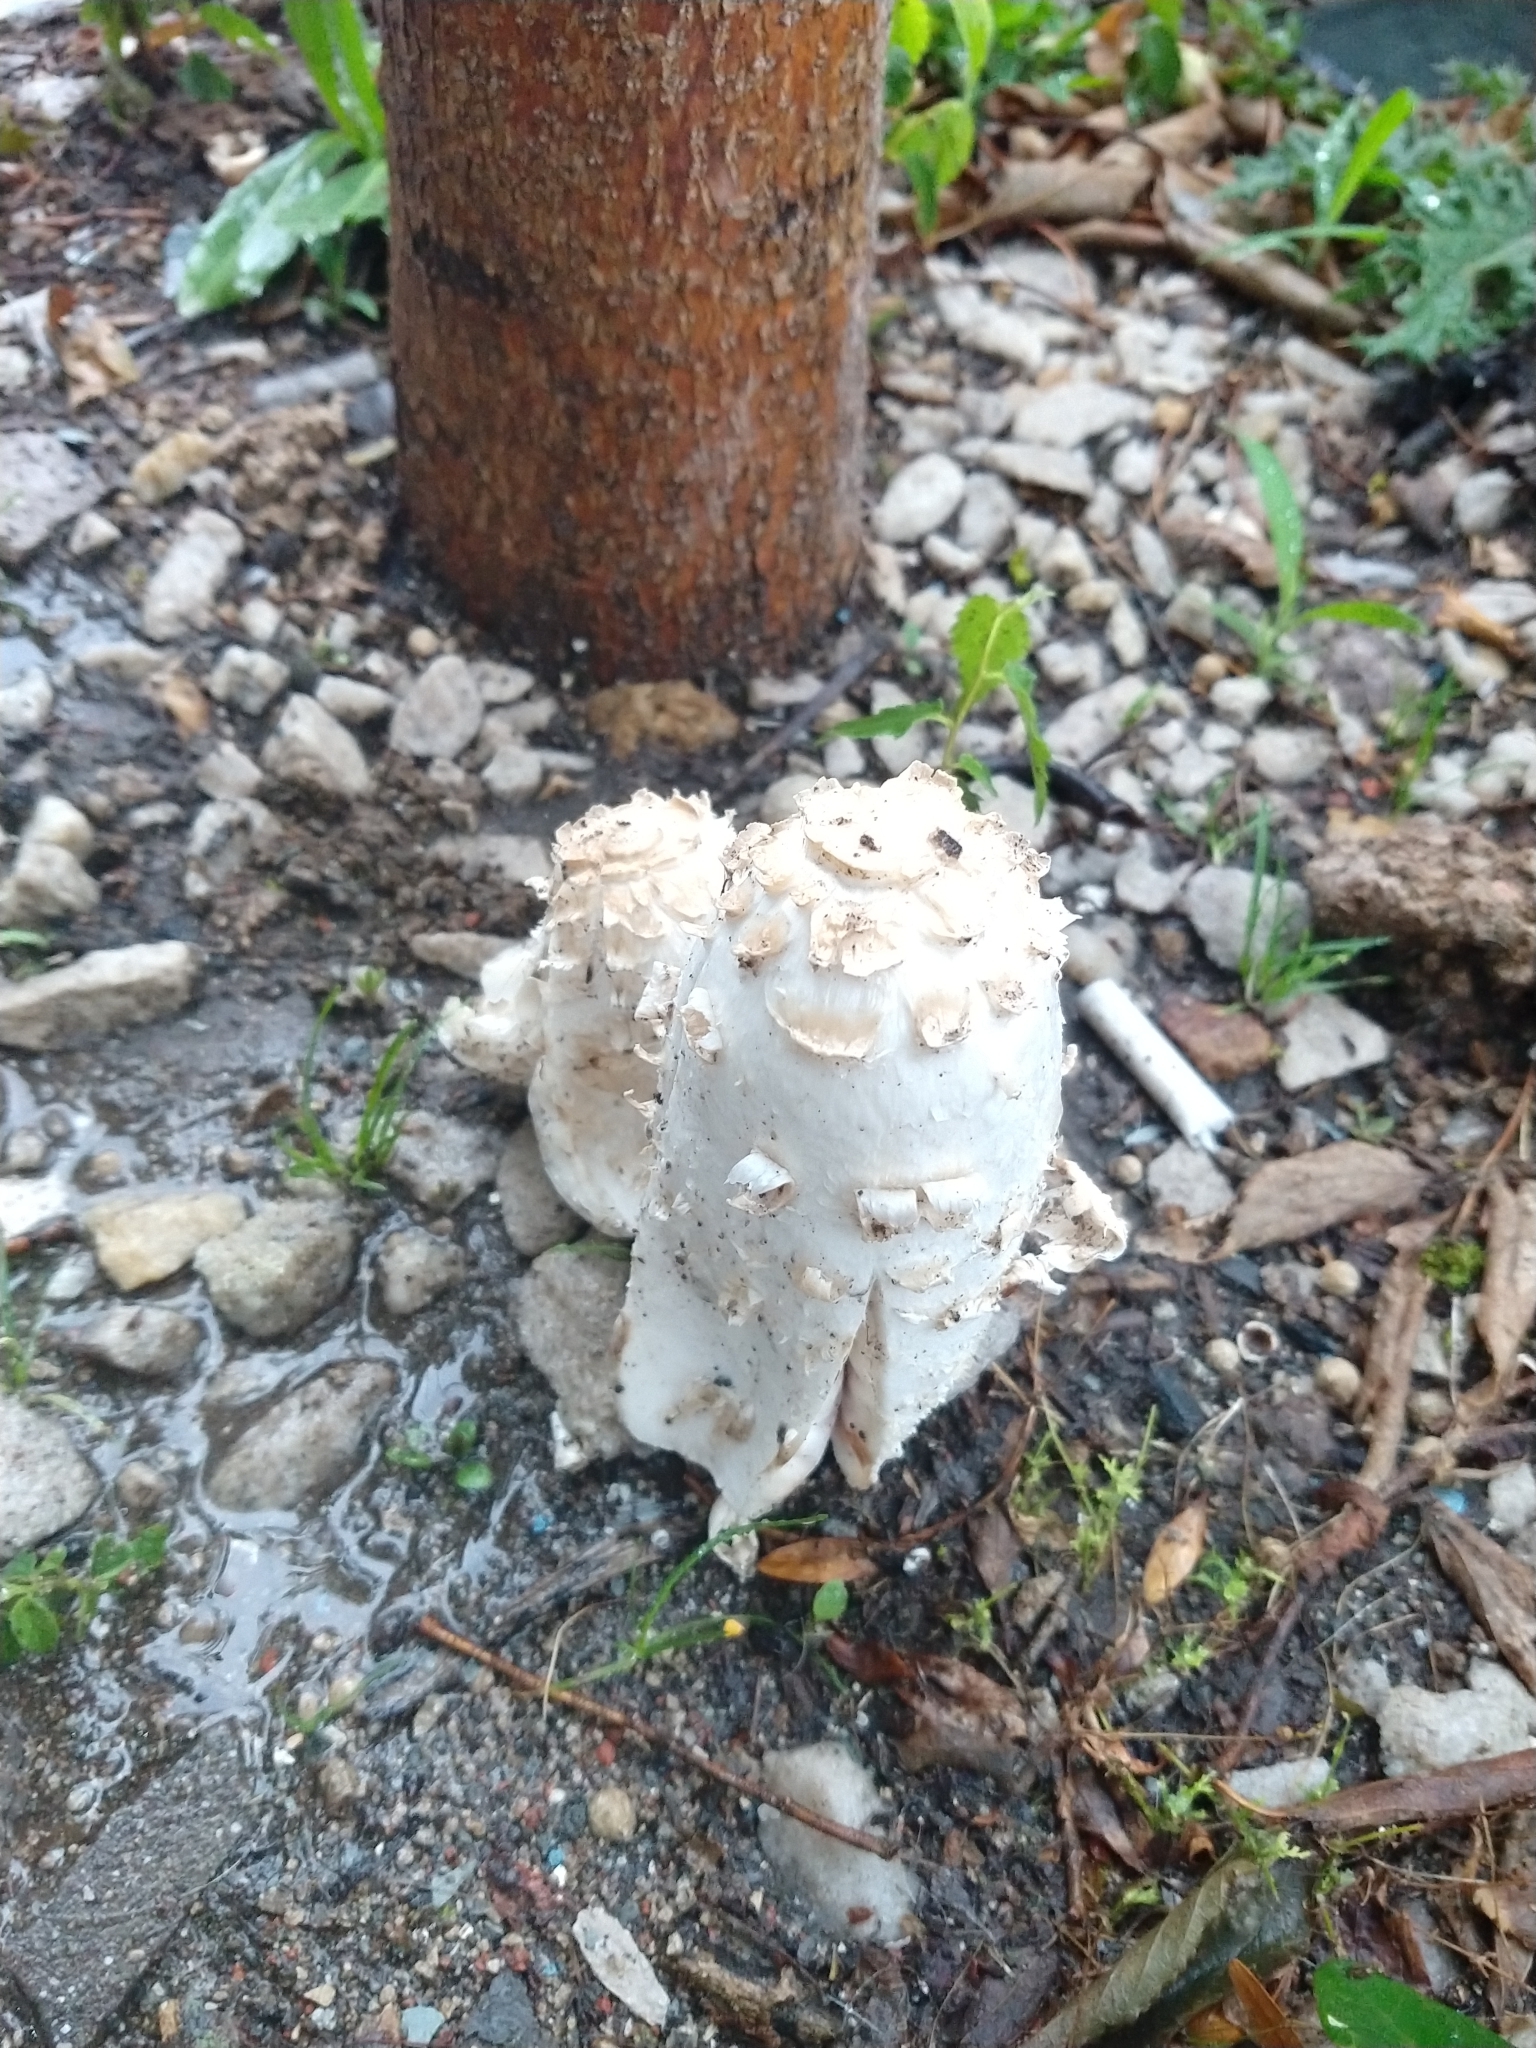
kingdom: Fungi
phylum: Basidiomycota
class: Agaricomycetes
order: Agaricales
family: Agaricaceae
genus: Coprinus
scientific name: Coprinus comatus
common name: Lawyer's wig
